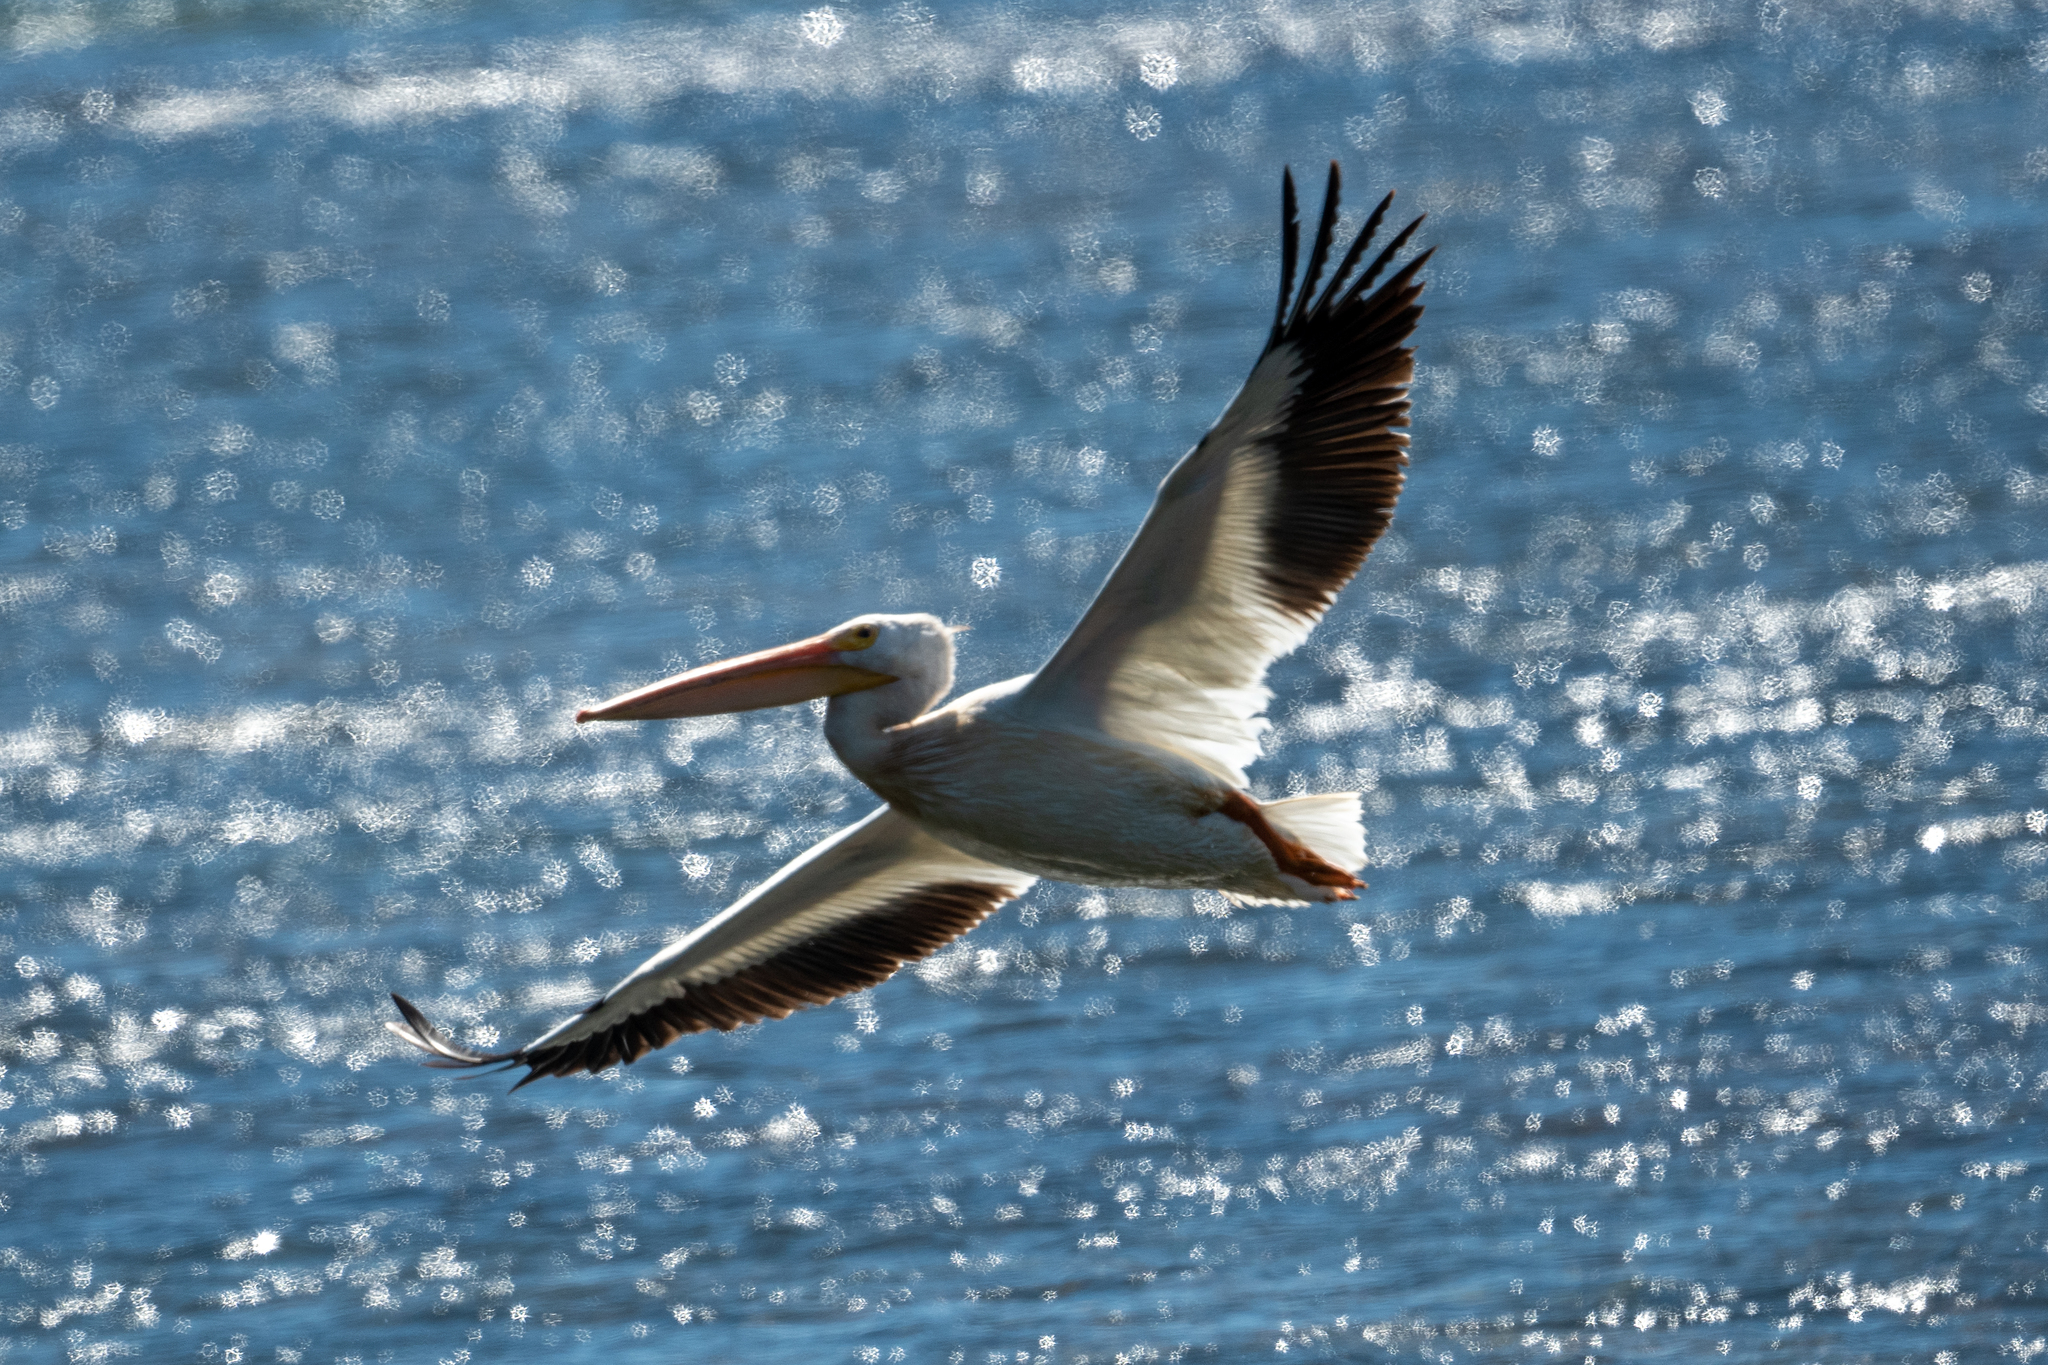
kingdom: Animalia
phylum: Chordata
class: Aves
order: Pelecaniformes
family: Pelecanidae
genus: Pelecanus
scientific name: Pelecanus erythrorhynchos
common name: American white pelican
